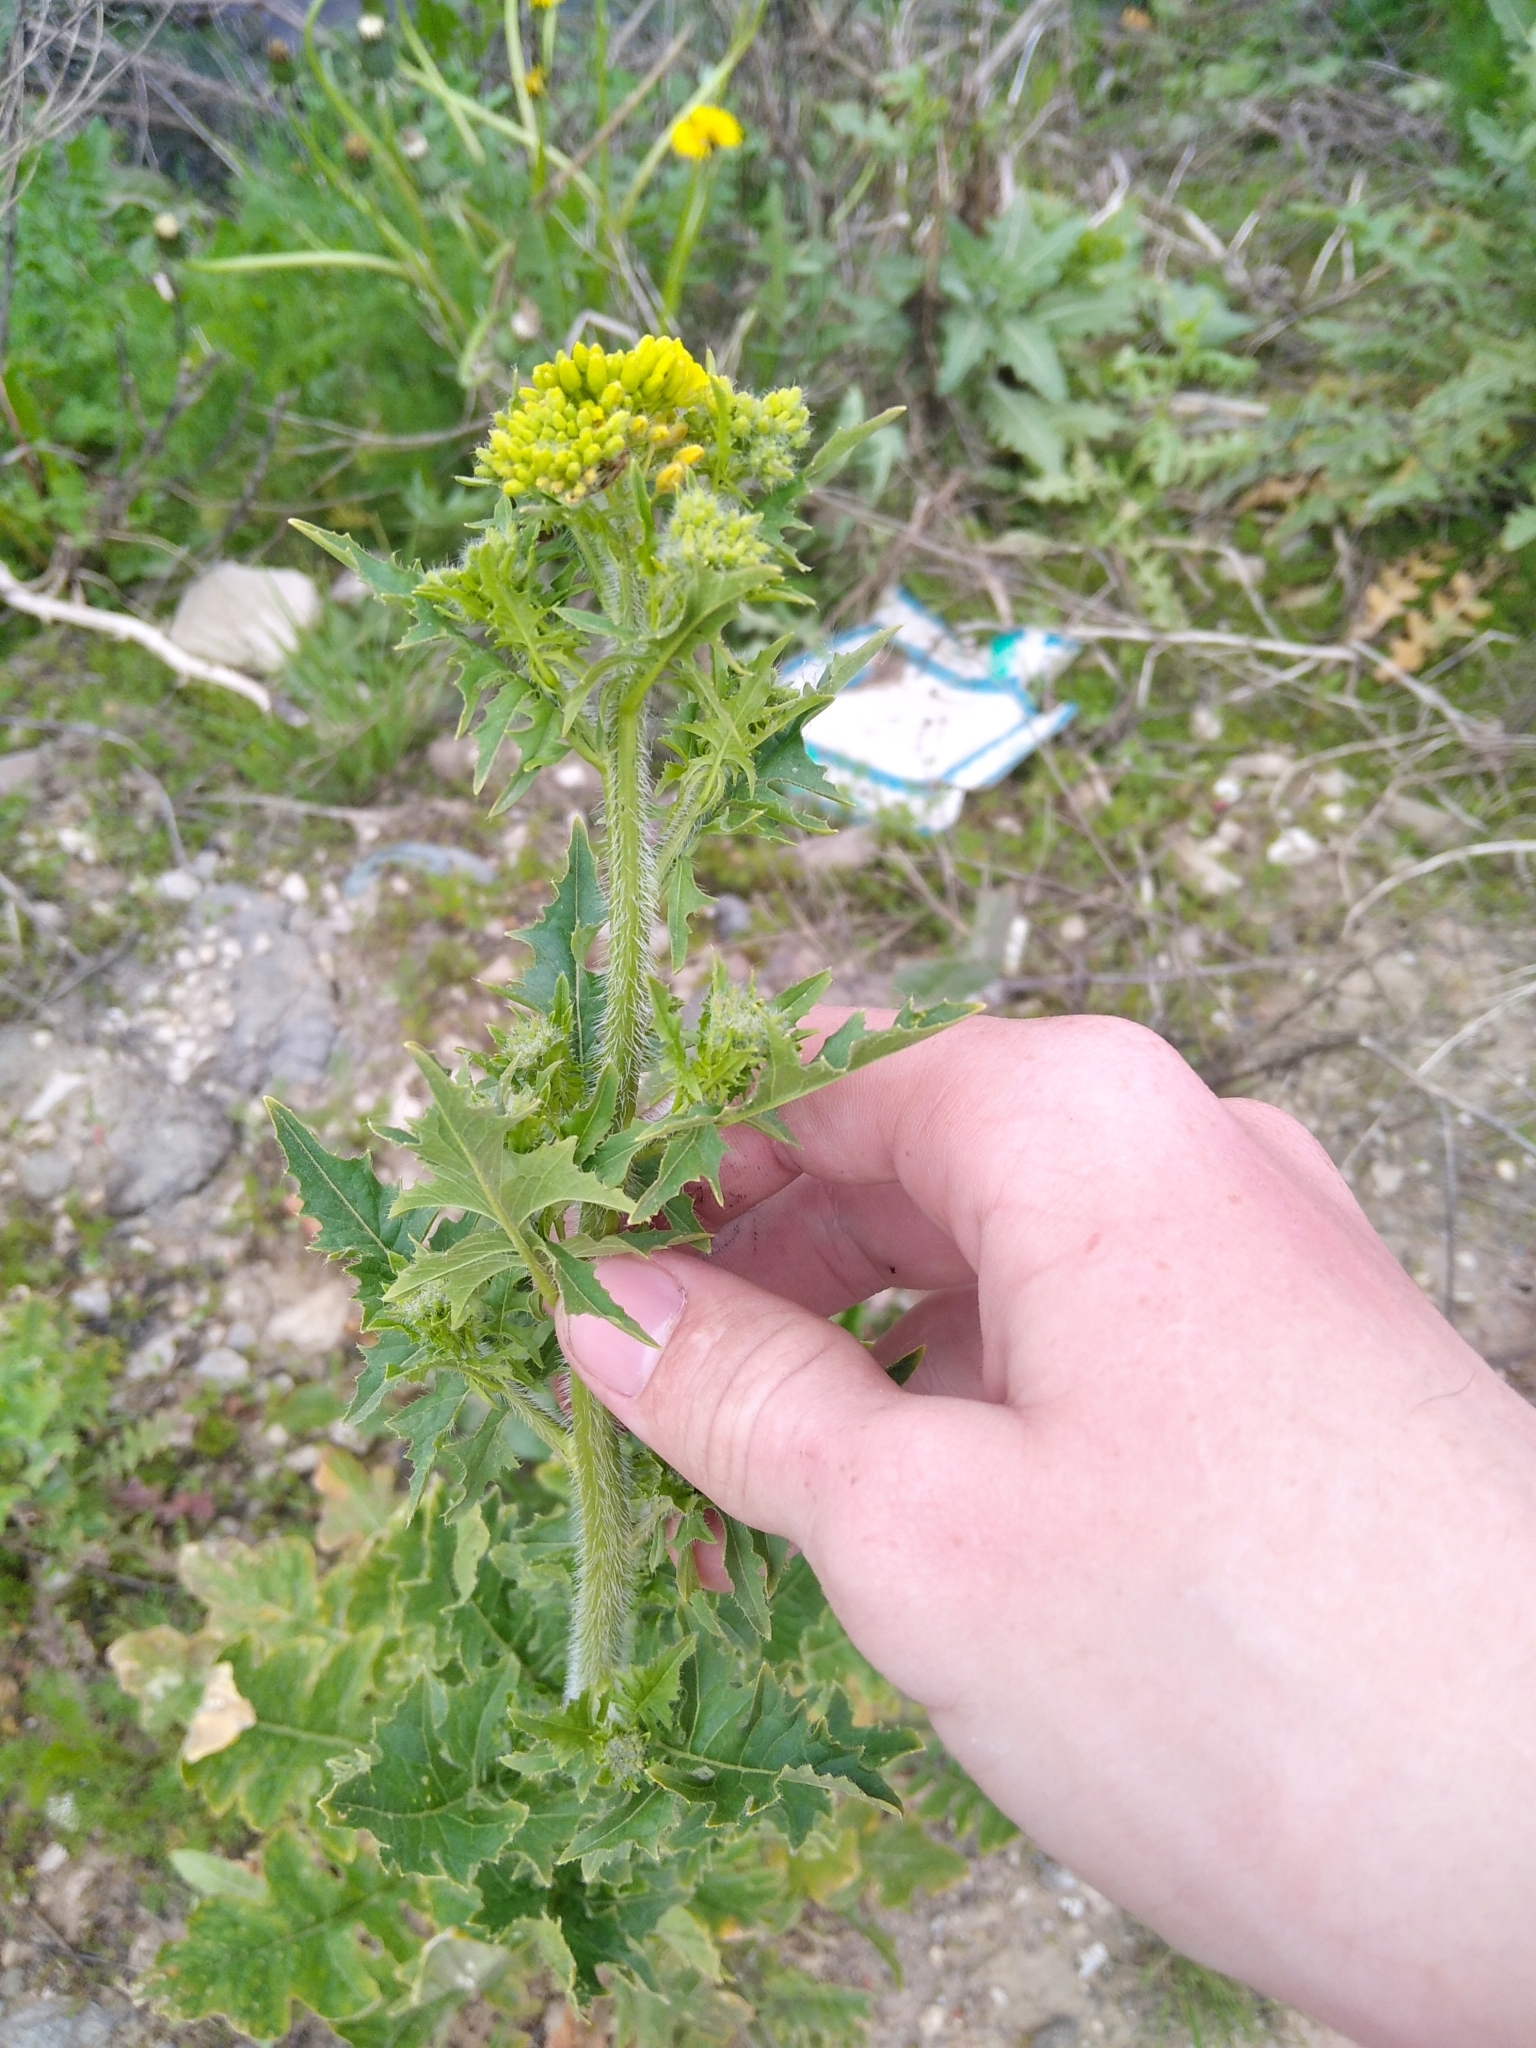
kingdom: Plantae
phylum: Tracheophyta
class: Magnoliopsida
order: Brassicales
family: Brassicaceae
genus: Sisymbrium
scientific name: Sisymbrium loeselii
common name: False london-rocket
